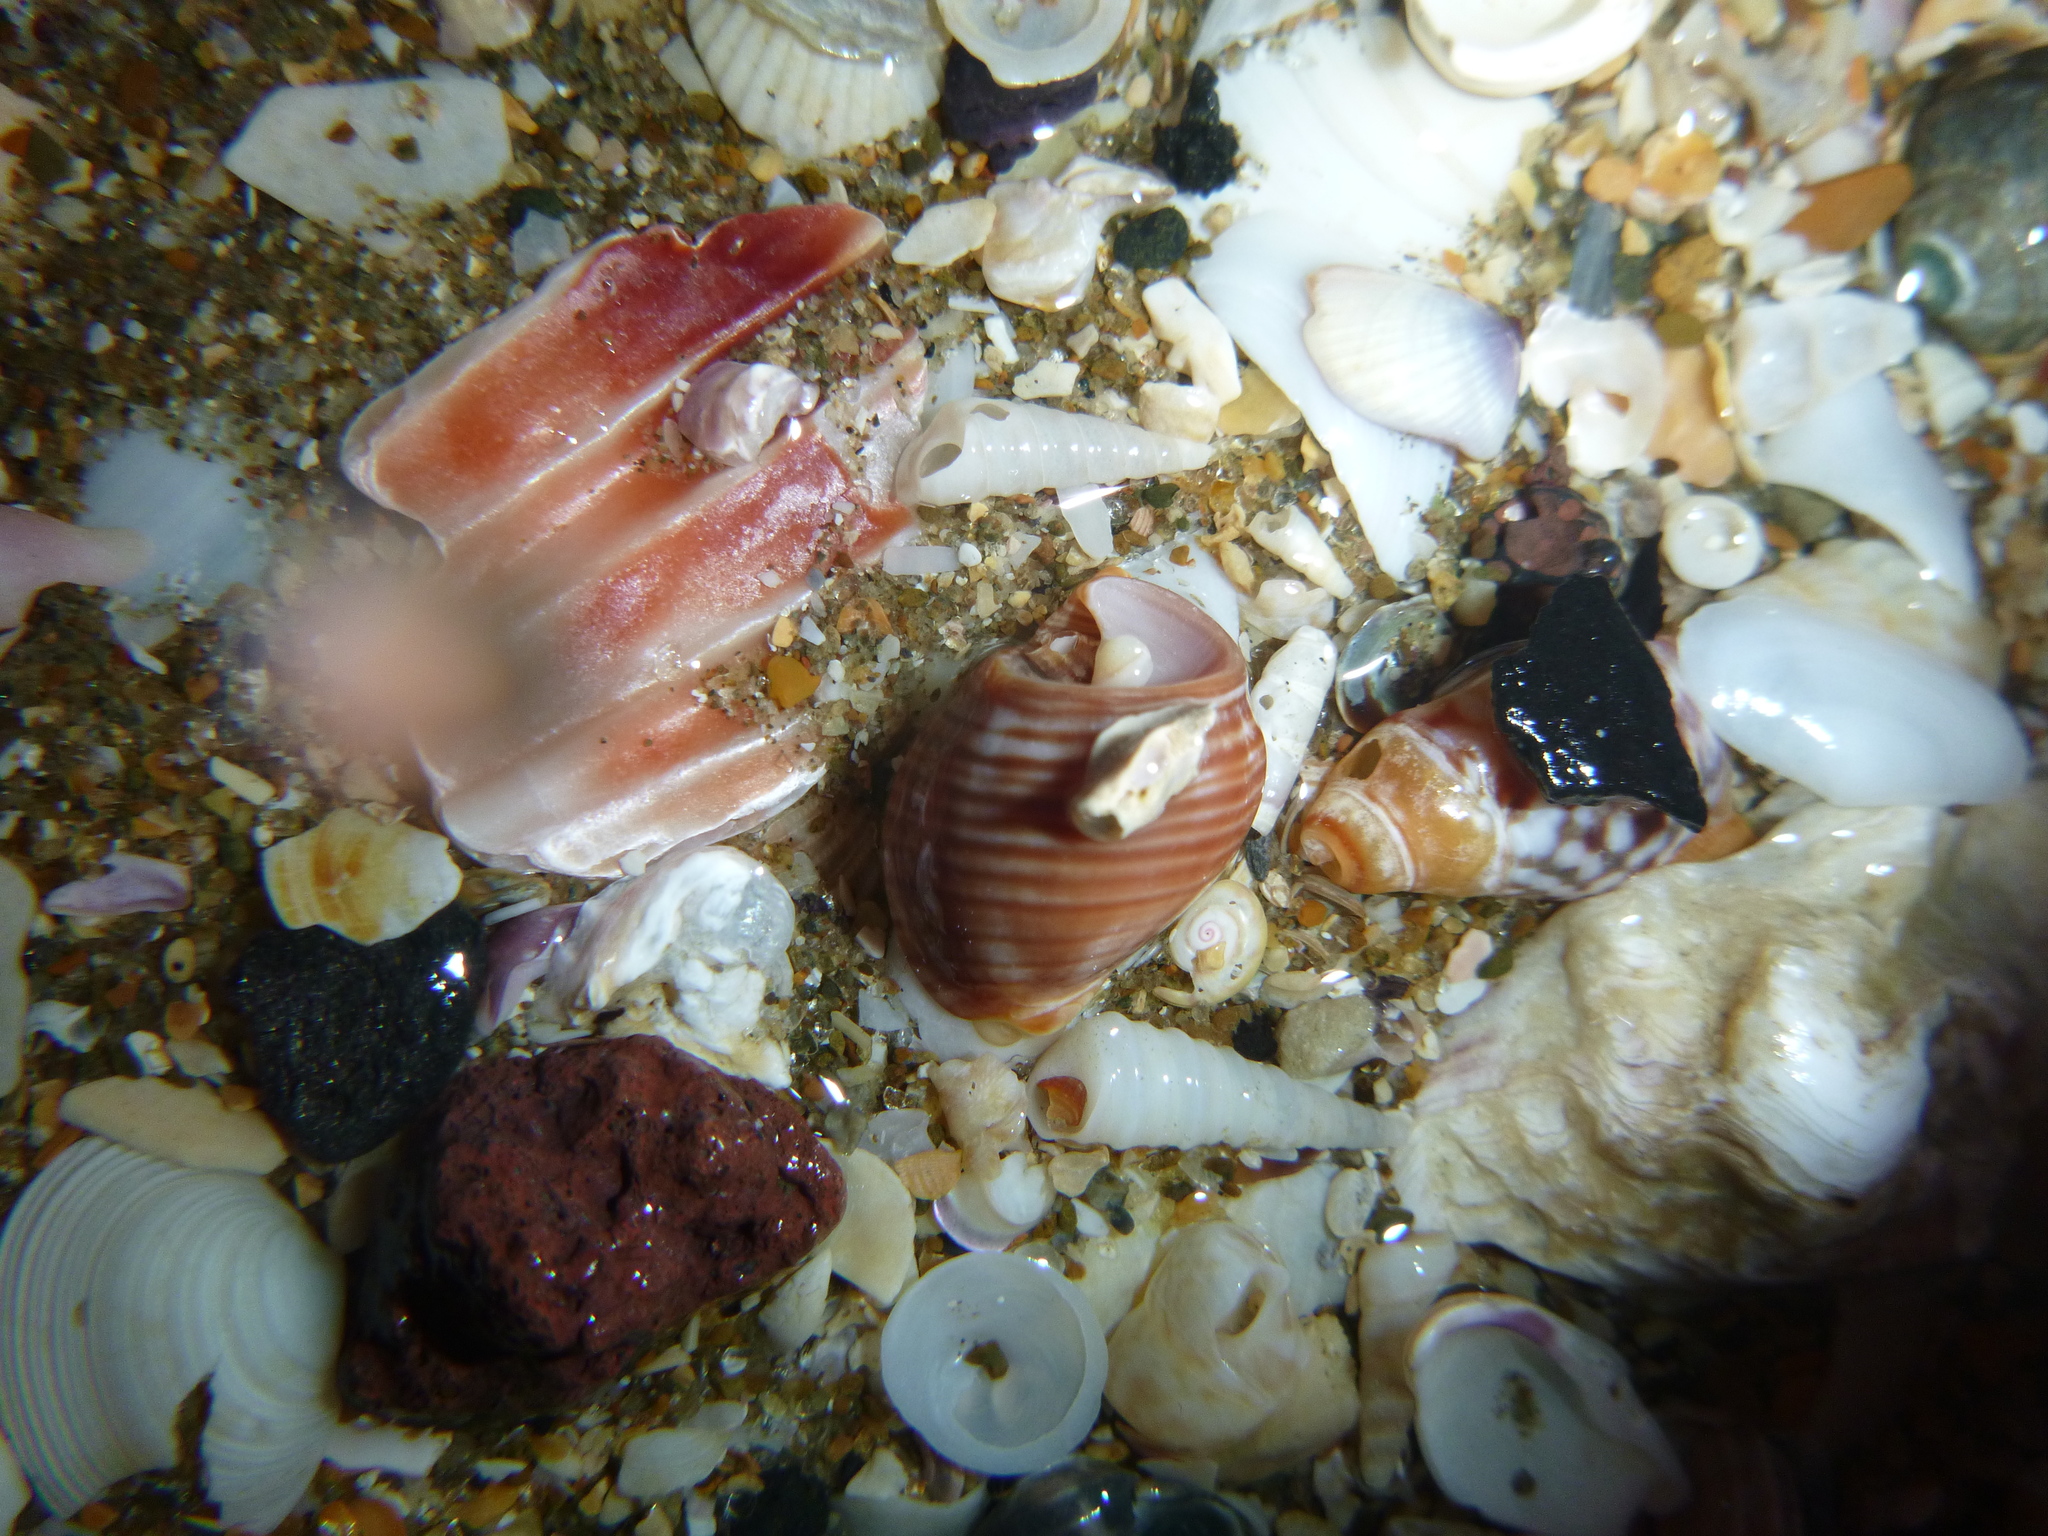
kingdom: Animalia
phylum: Mollusca
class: Gastropoda
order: Neogastropoda
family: Cominellidae
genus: Cominella
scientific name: Cominella virgata
